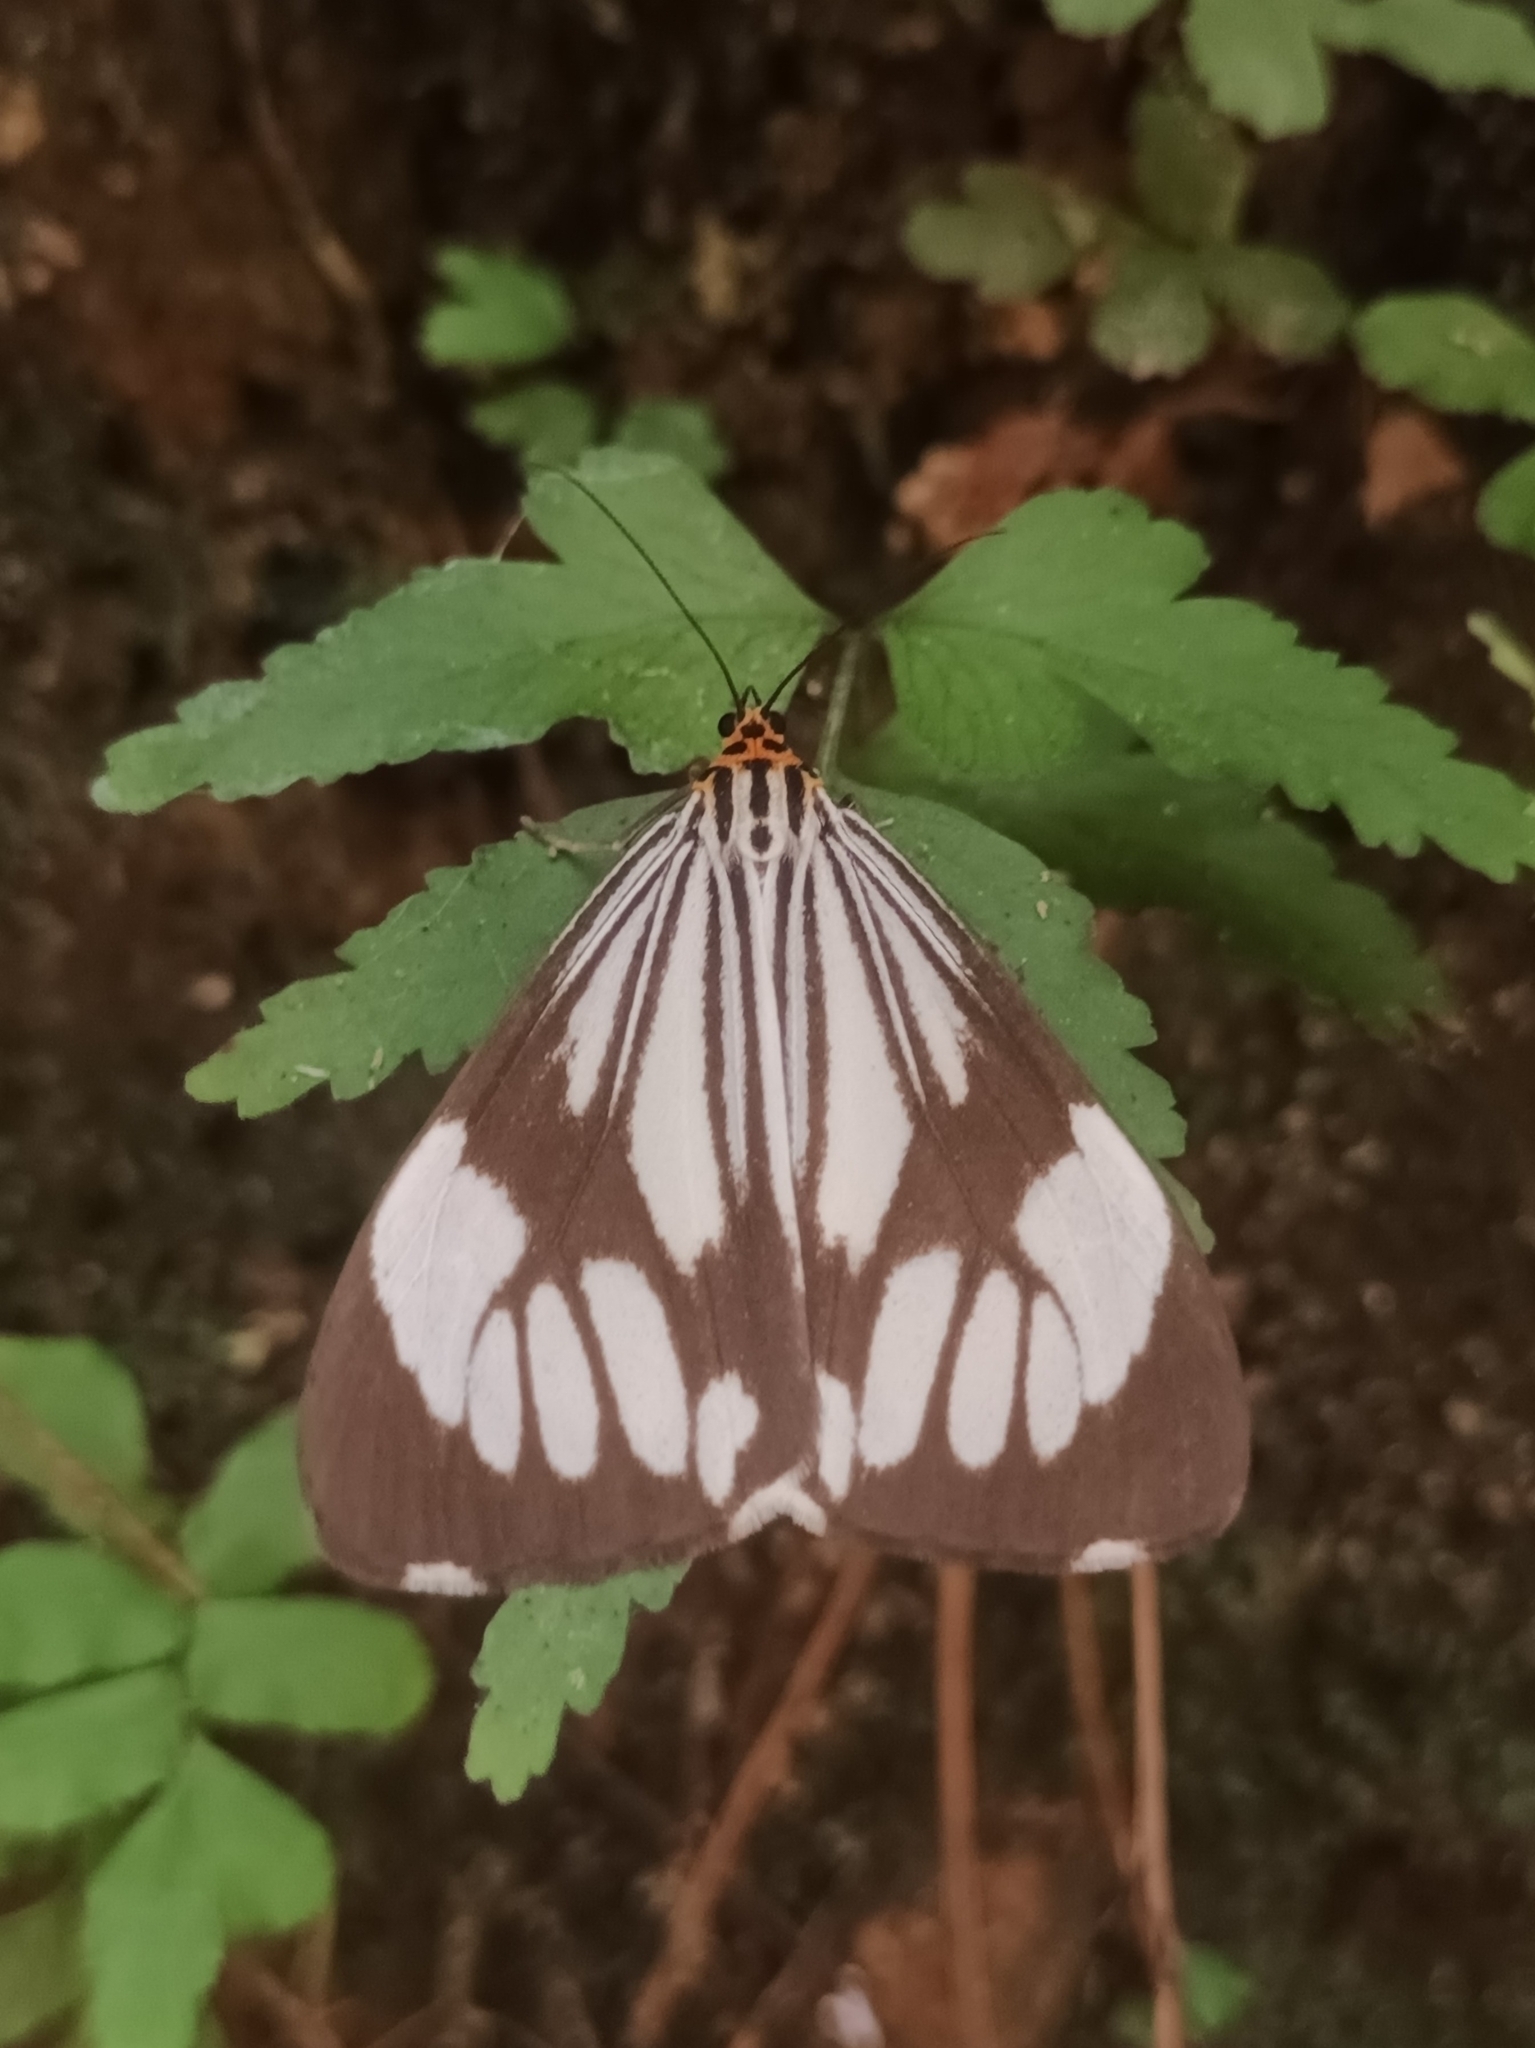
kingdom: Animalia
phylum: Arthropoda
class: Insecta
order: Lepidoptera
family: Erebidae
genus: Nyctemera
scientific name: Nyctemera coleta
